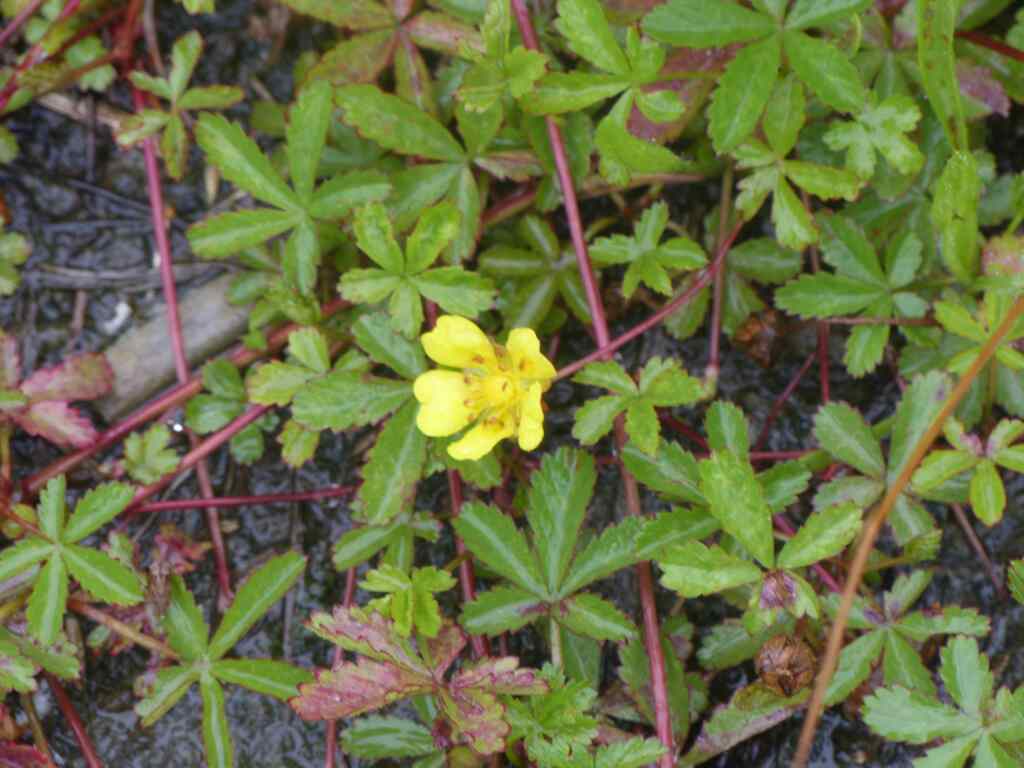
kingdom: Plantae
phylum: Tracheophyta
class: Magnoliopsida
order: Rosales
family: Rosaceae
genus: Potentilla
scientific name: Potentilla reptans
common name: Creeping cinquefoil
